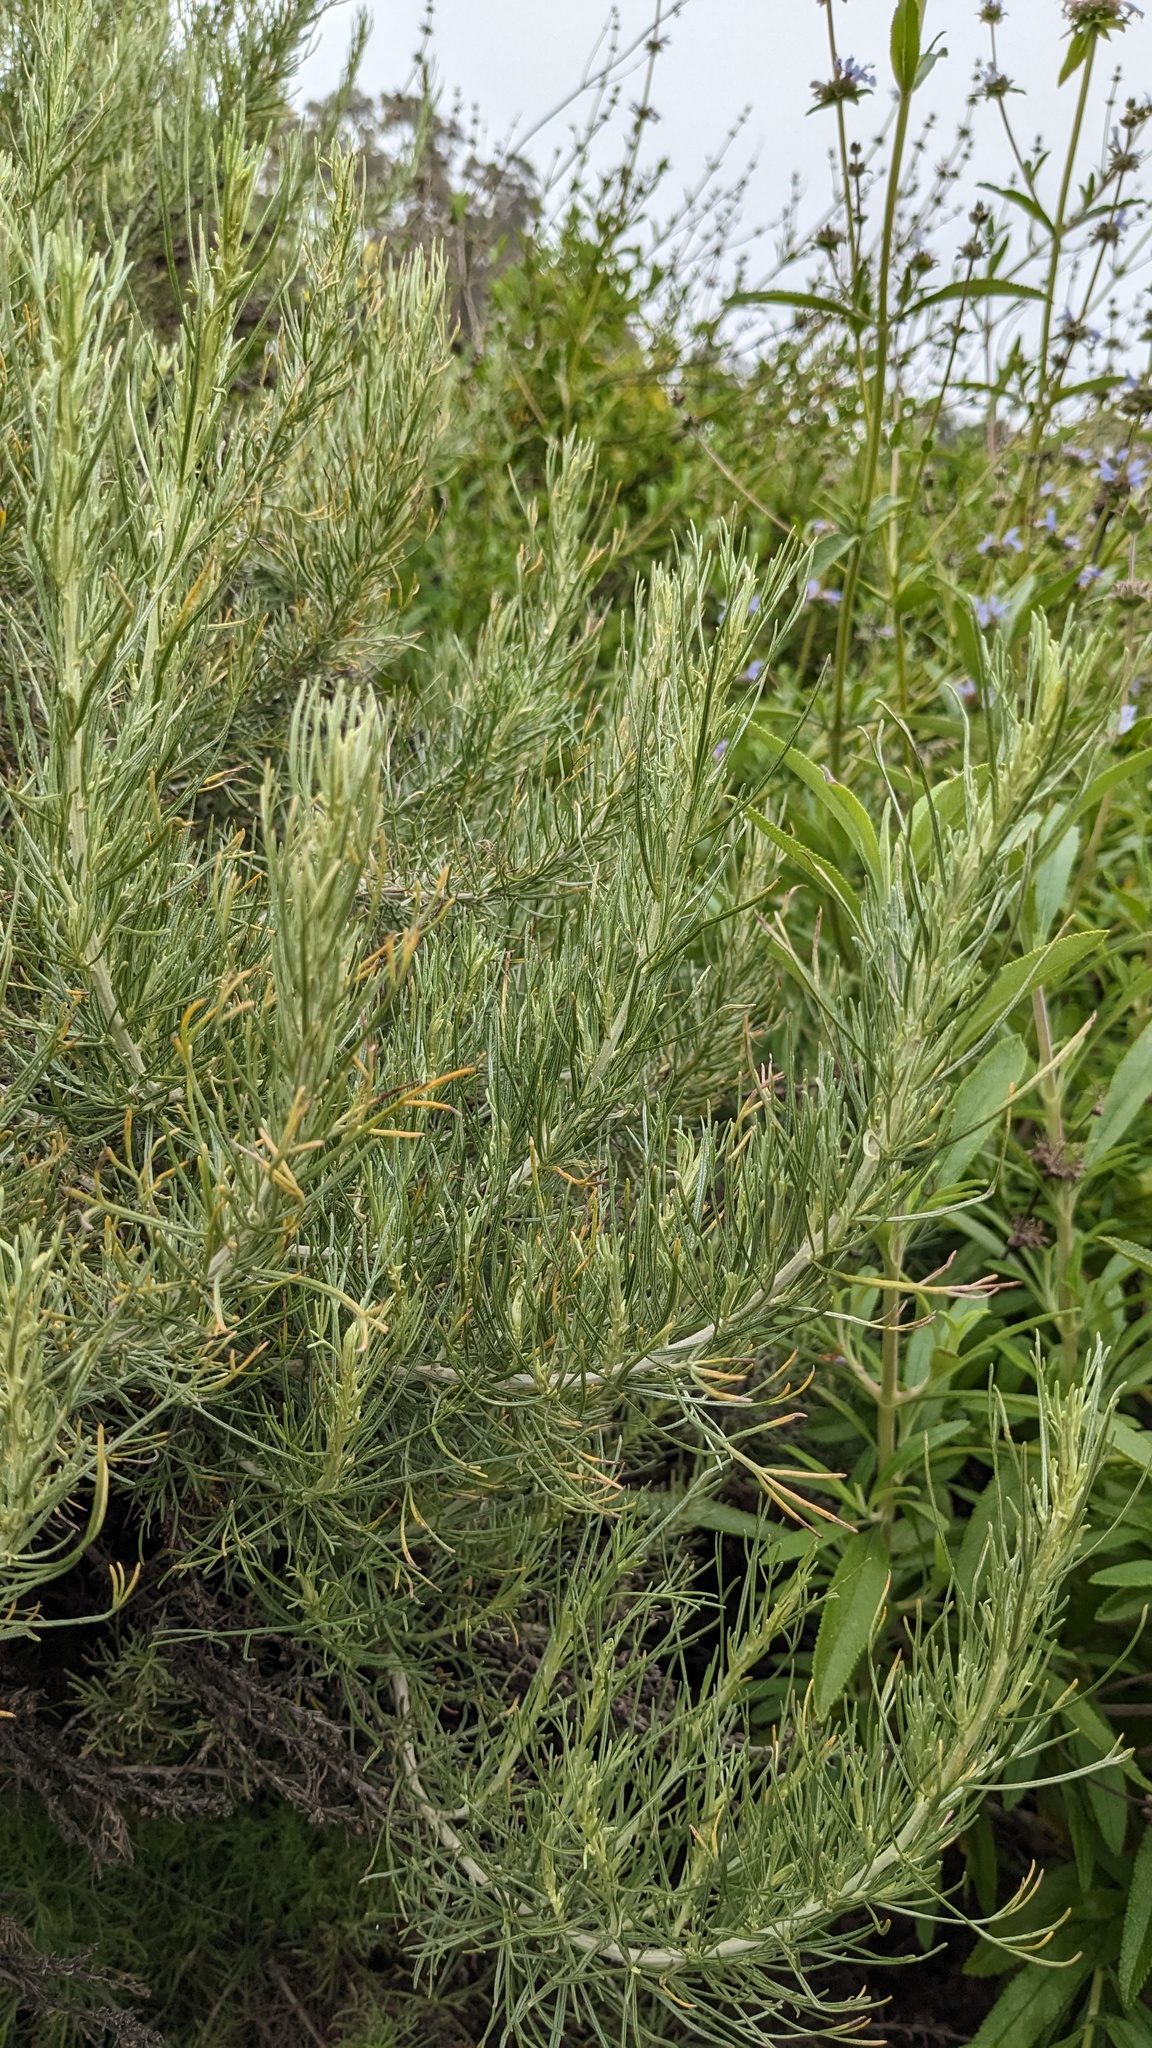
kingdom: Plantae
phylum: Tracheophyta
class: Magnoliopsida
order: Asterales
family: Asteraceae
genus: Artemisia
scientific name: Artemisia californica
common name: California sagebrush
